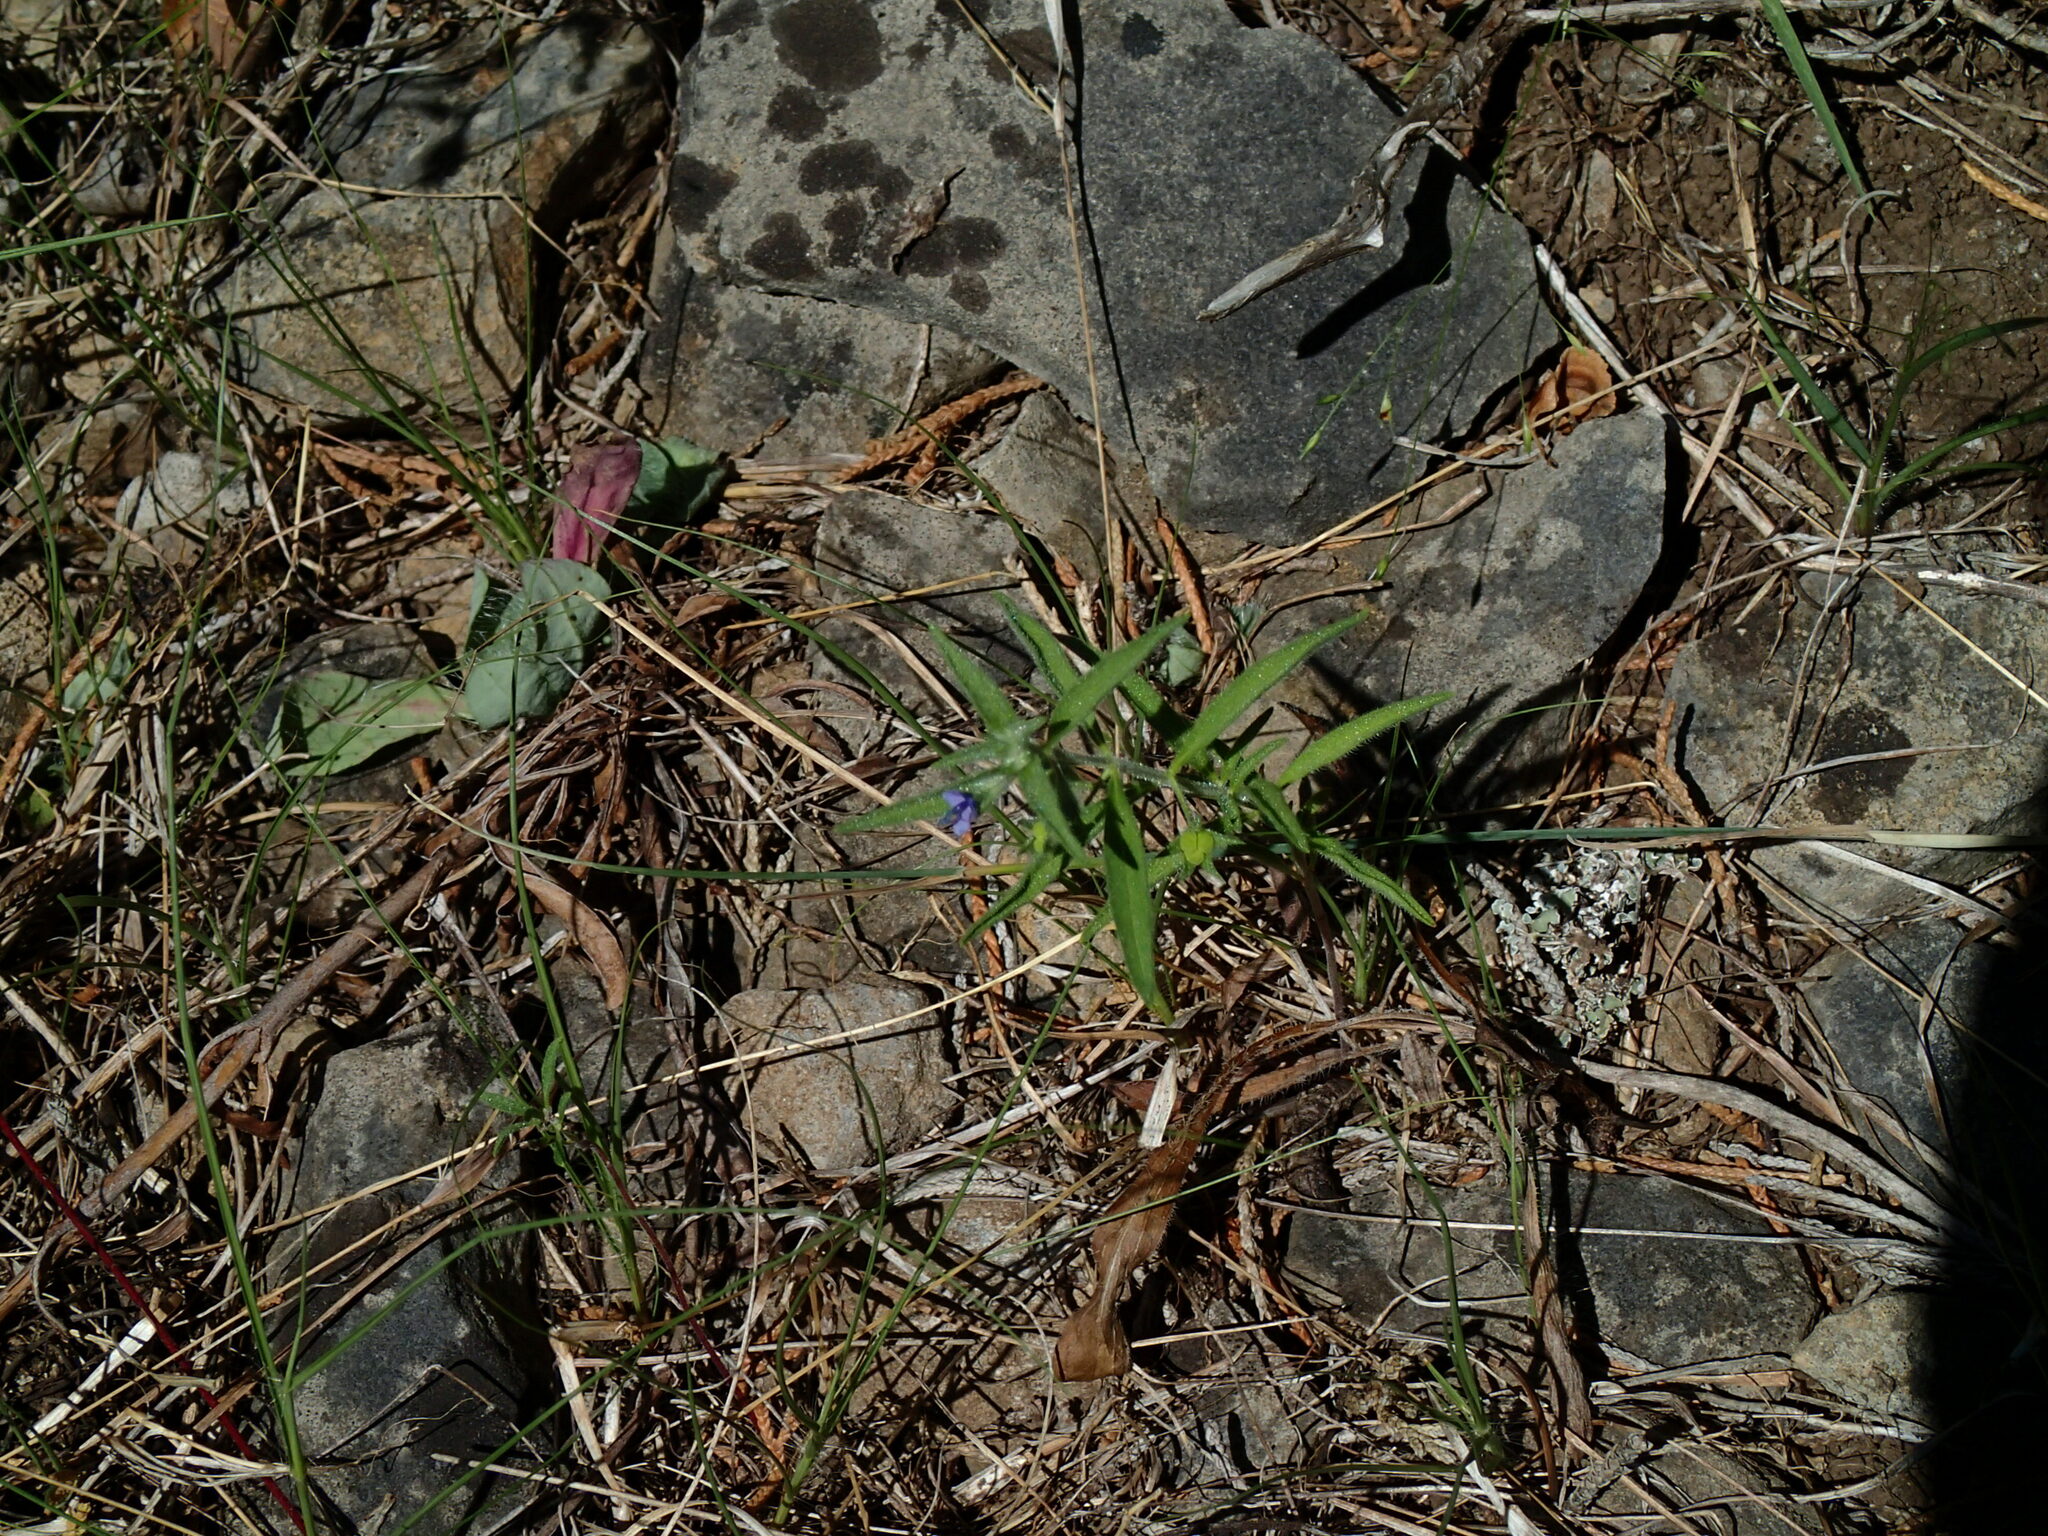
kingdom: Plantae
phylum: Tracheophyta
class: Magnoliopsida
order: Lamiales
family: Lamiaceae
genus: Trichostema
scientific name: Trichostema brachiatum
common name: False pennyroyal
